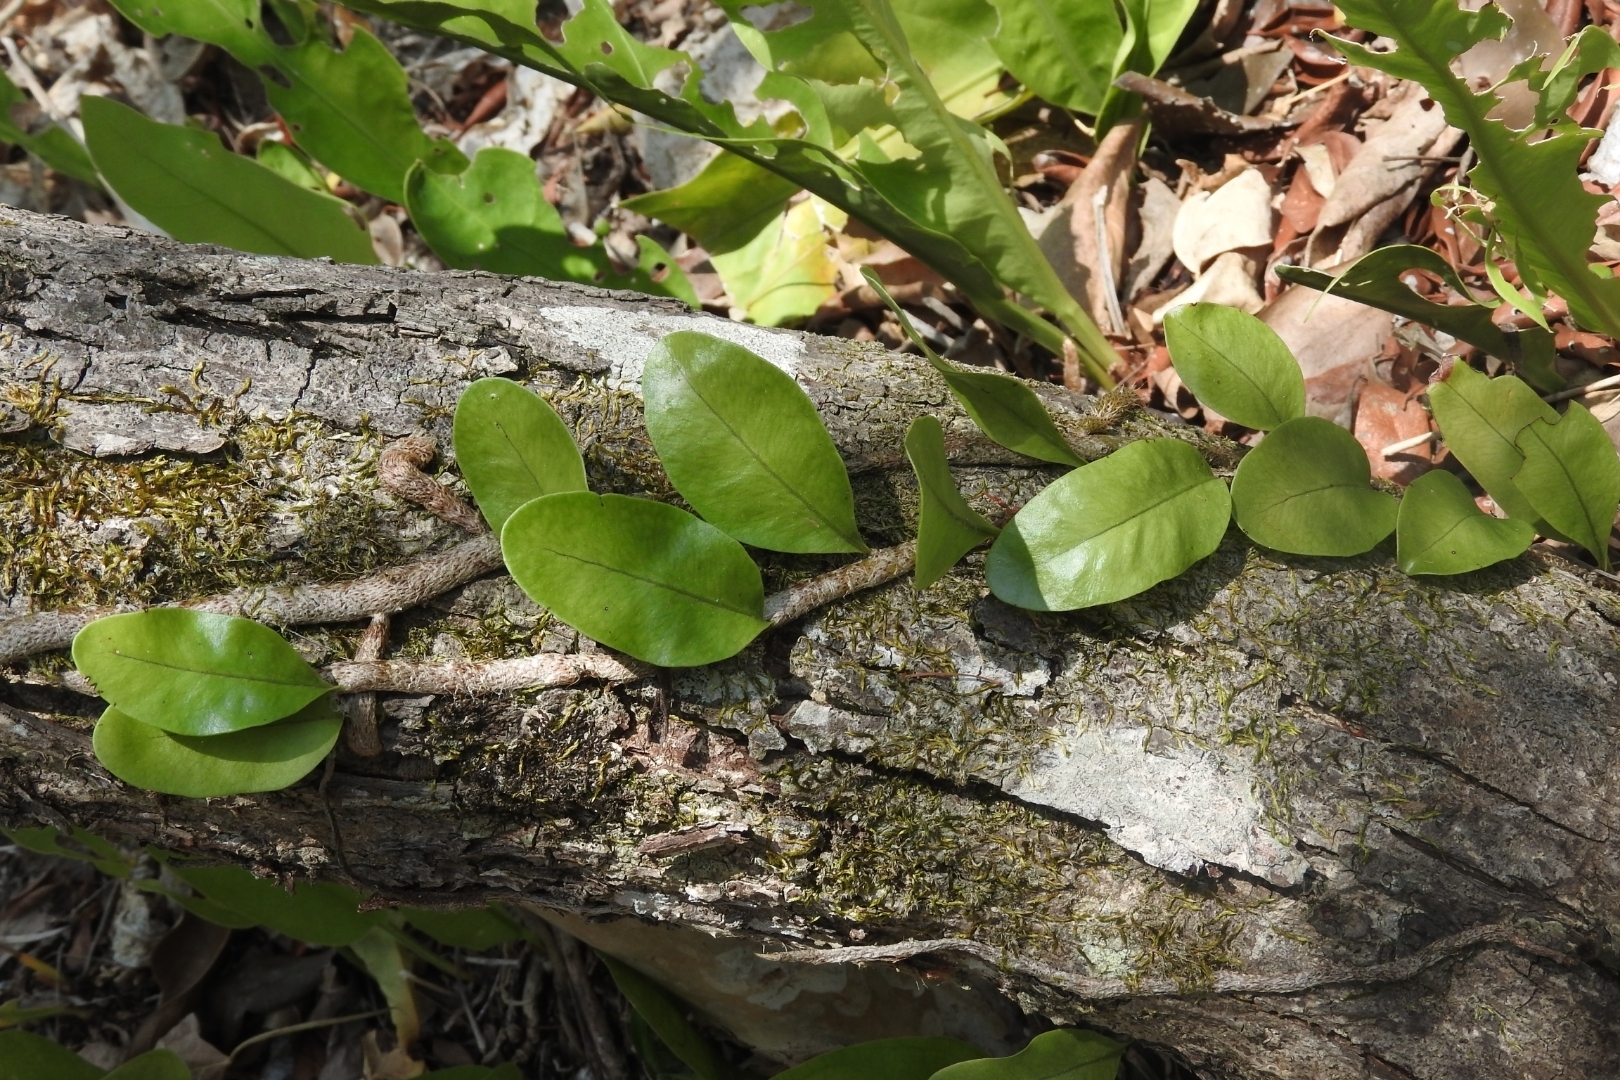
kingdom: Plantae
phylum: Tracheophyta
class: Polypodiopsida
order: Polypodiales
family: Polypodiaceae
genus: Microgramma
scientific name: Microgramma nitida
